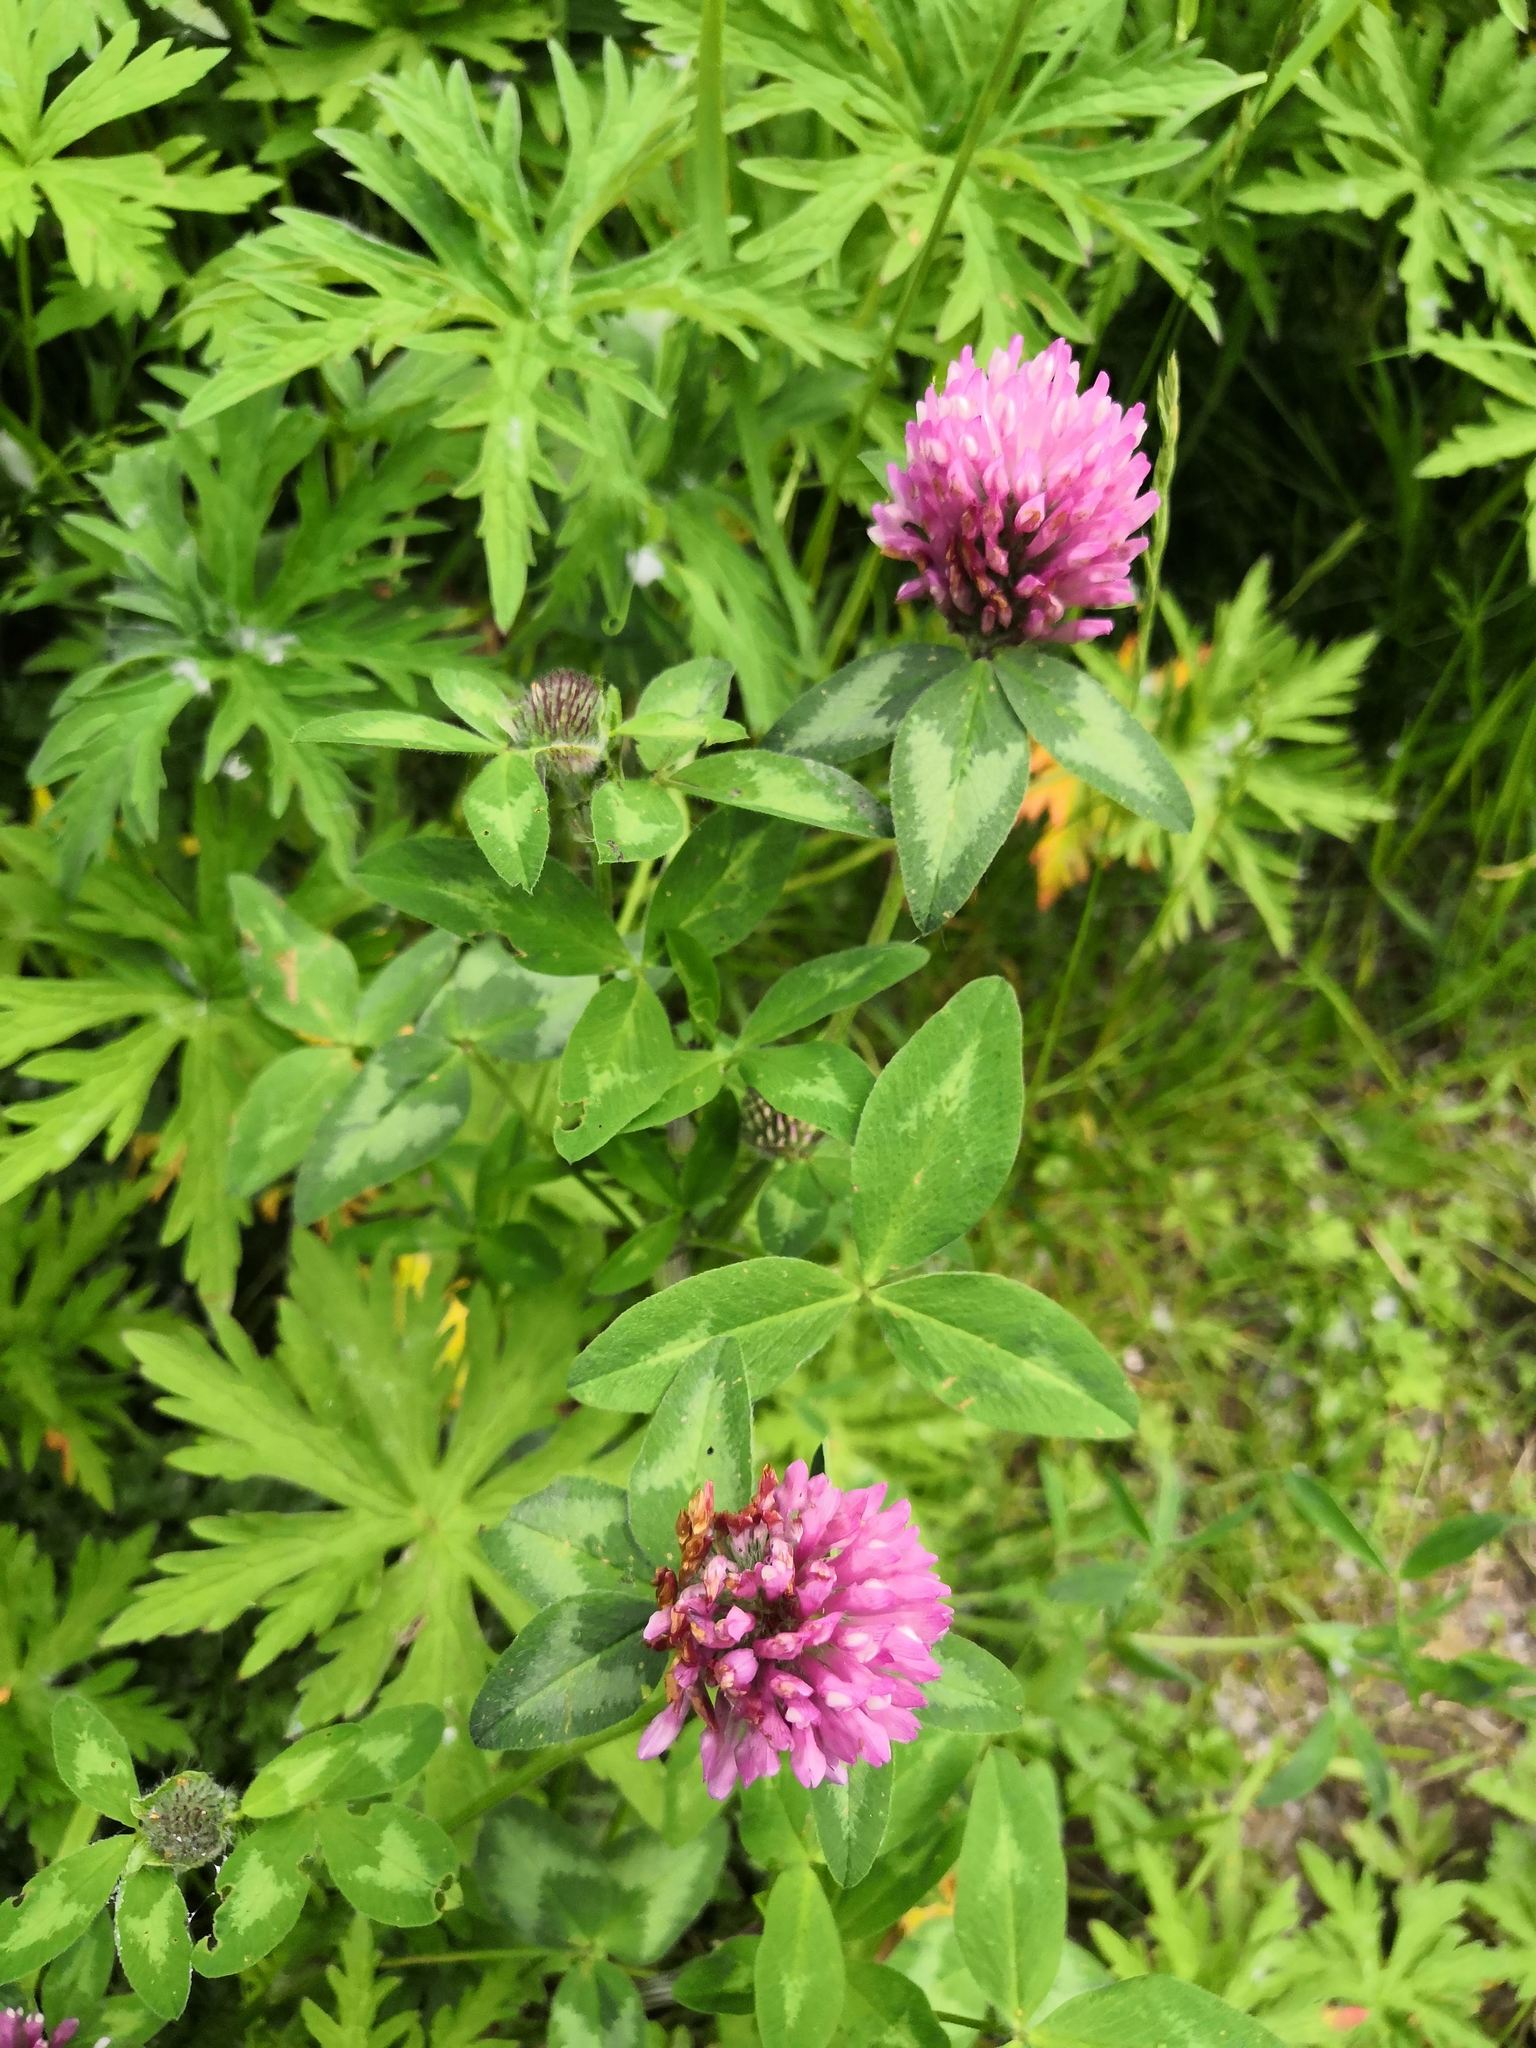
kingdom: Plantae
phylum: Tracheophyta
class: Magnoliopsida
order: Fabales
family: Fabaceae
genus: Trifolium
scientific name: Trifolium pratense
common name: Red clover
